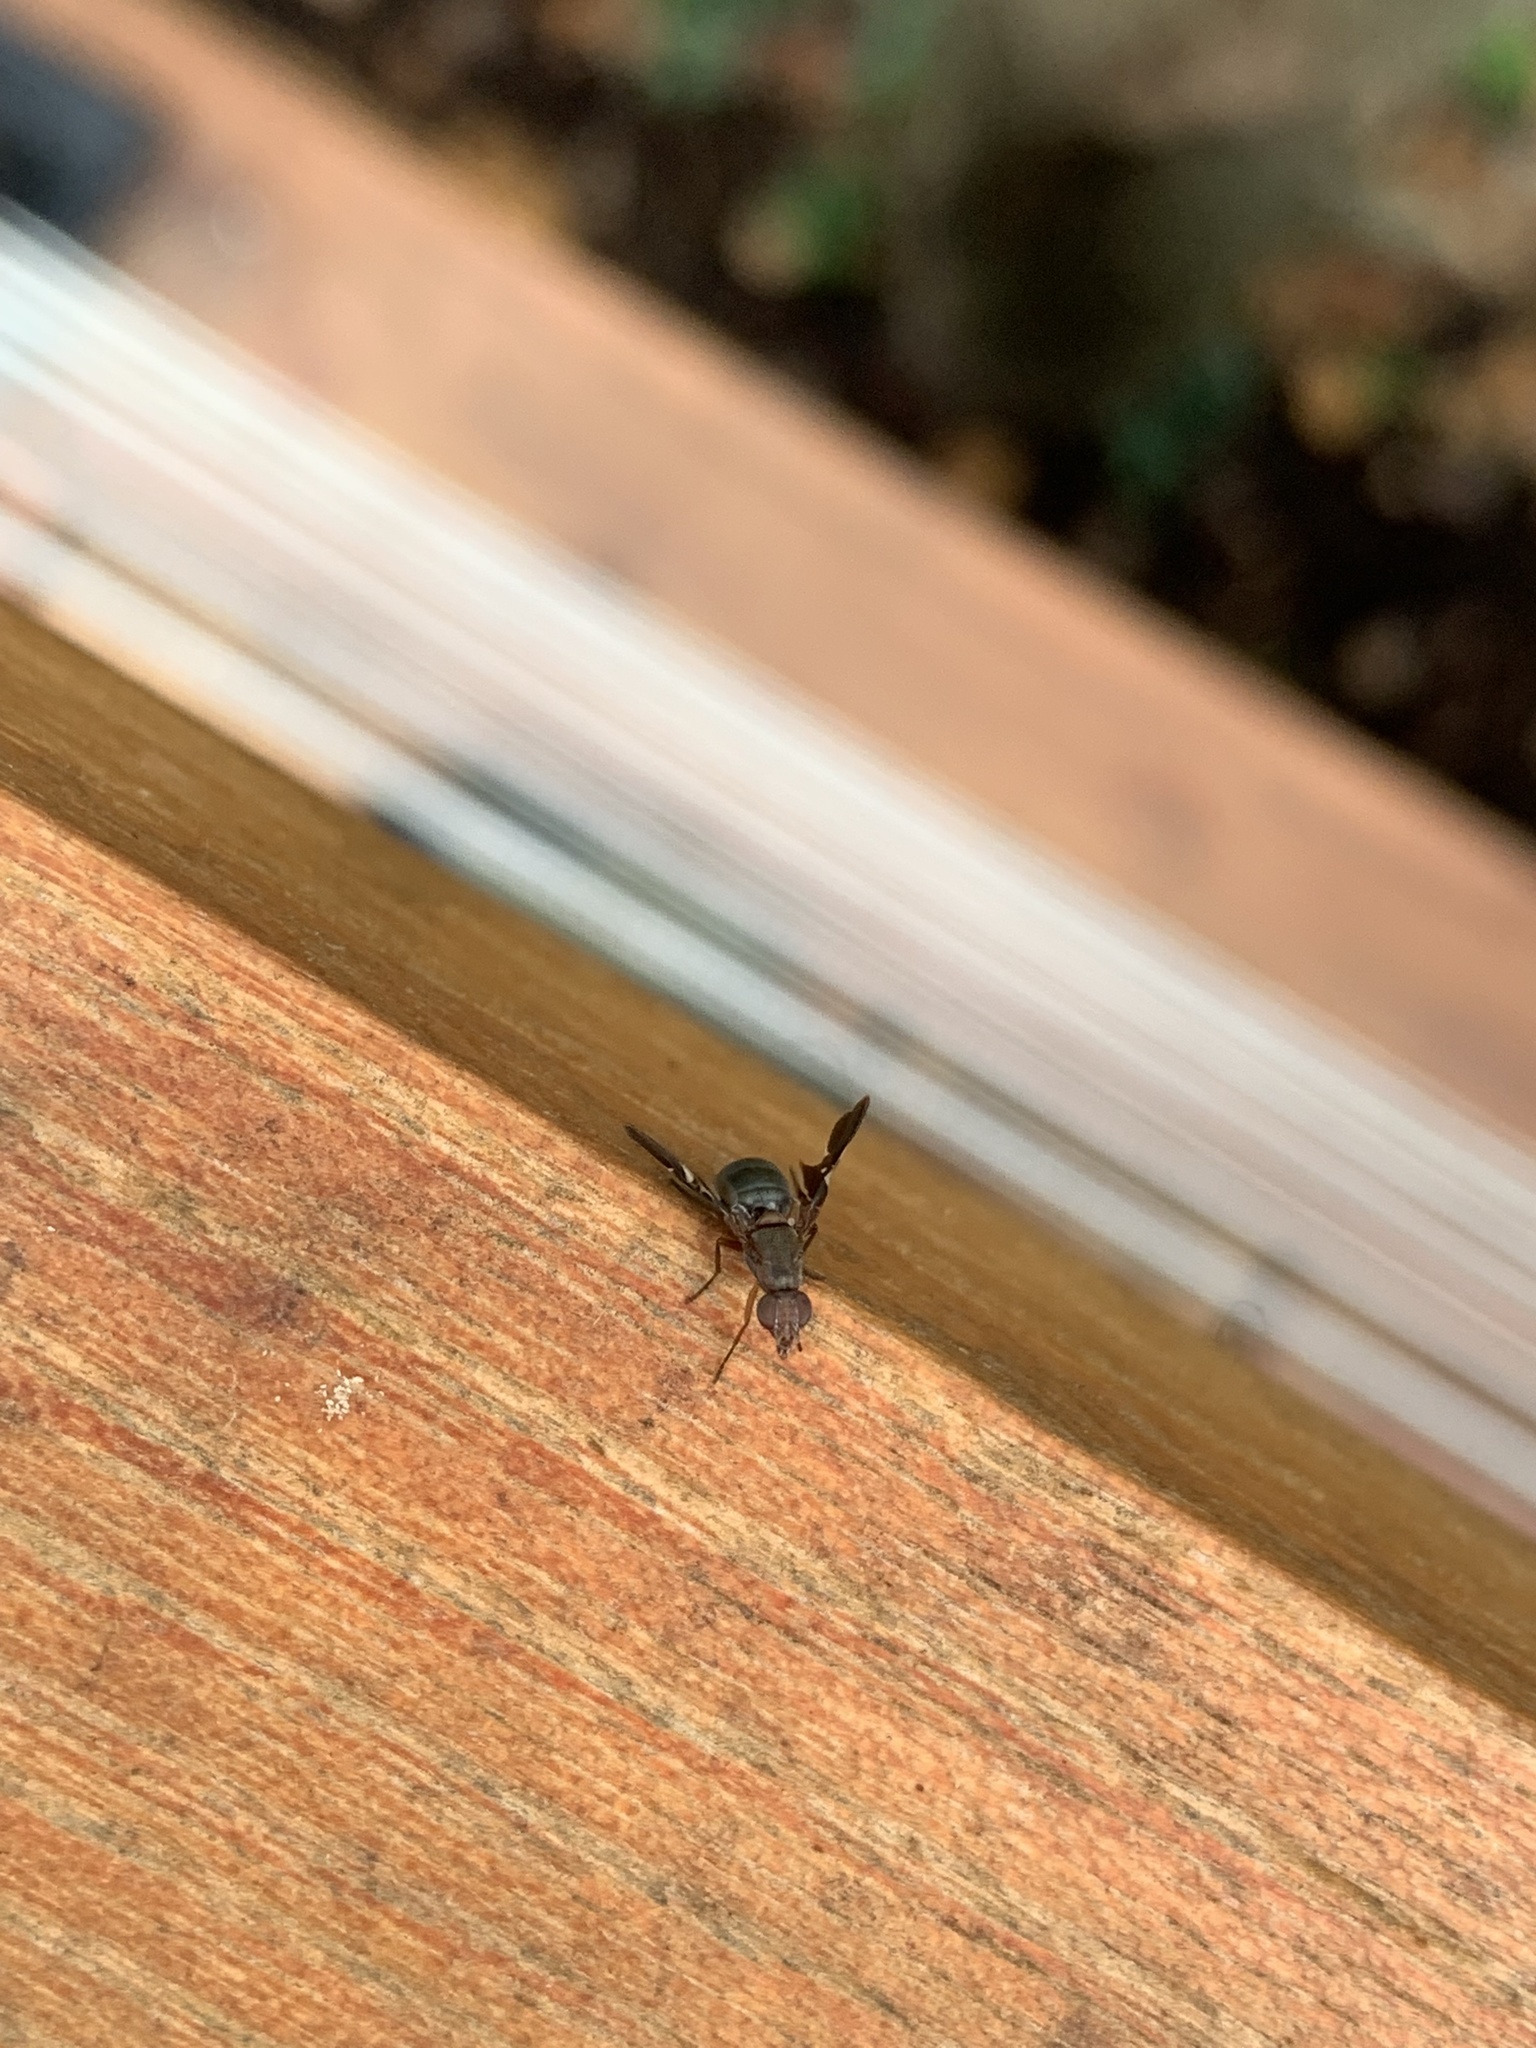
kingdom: Animalia
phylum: Arthropoda
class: Insecta
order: Diptera
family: Ulidiidae
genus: Delphinia
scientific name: Delphinia picta
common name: Common picture-winged fly
